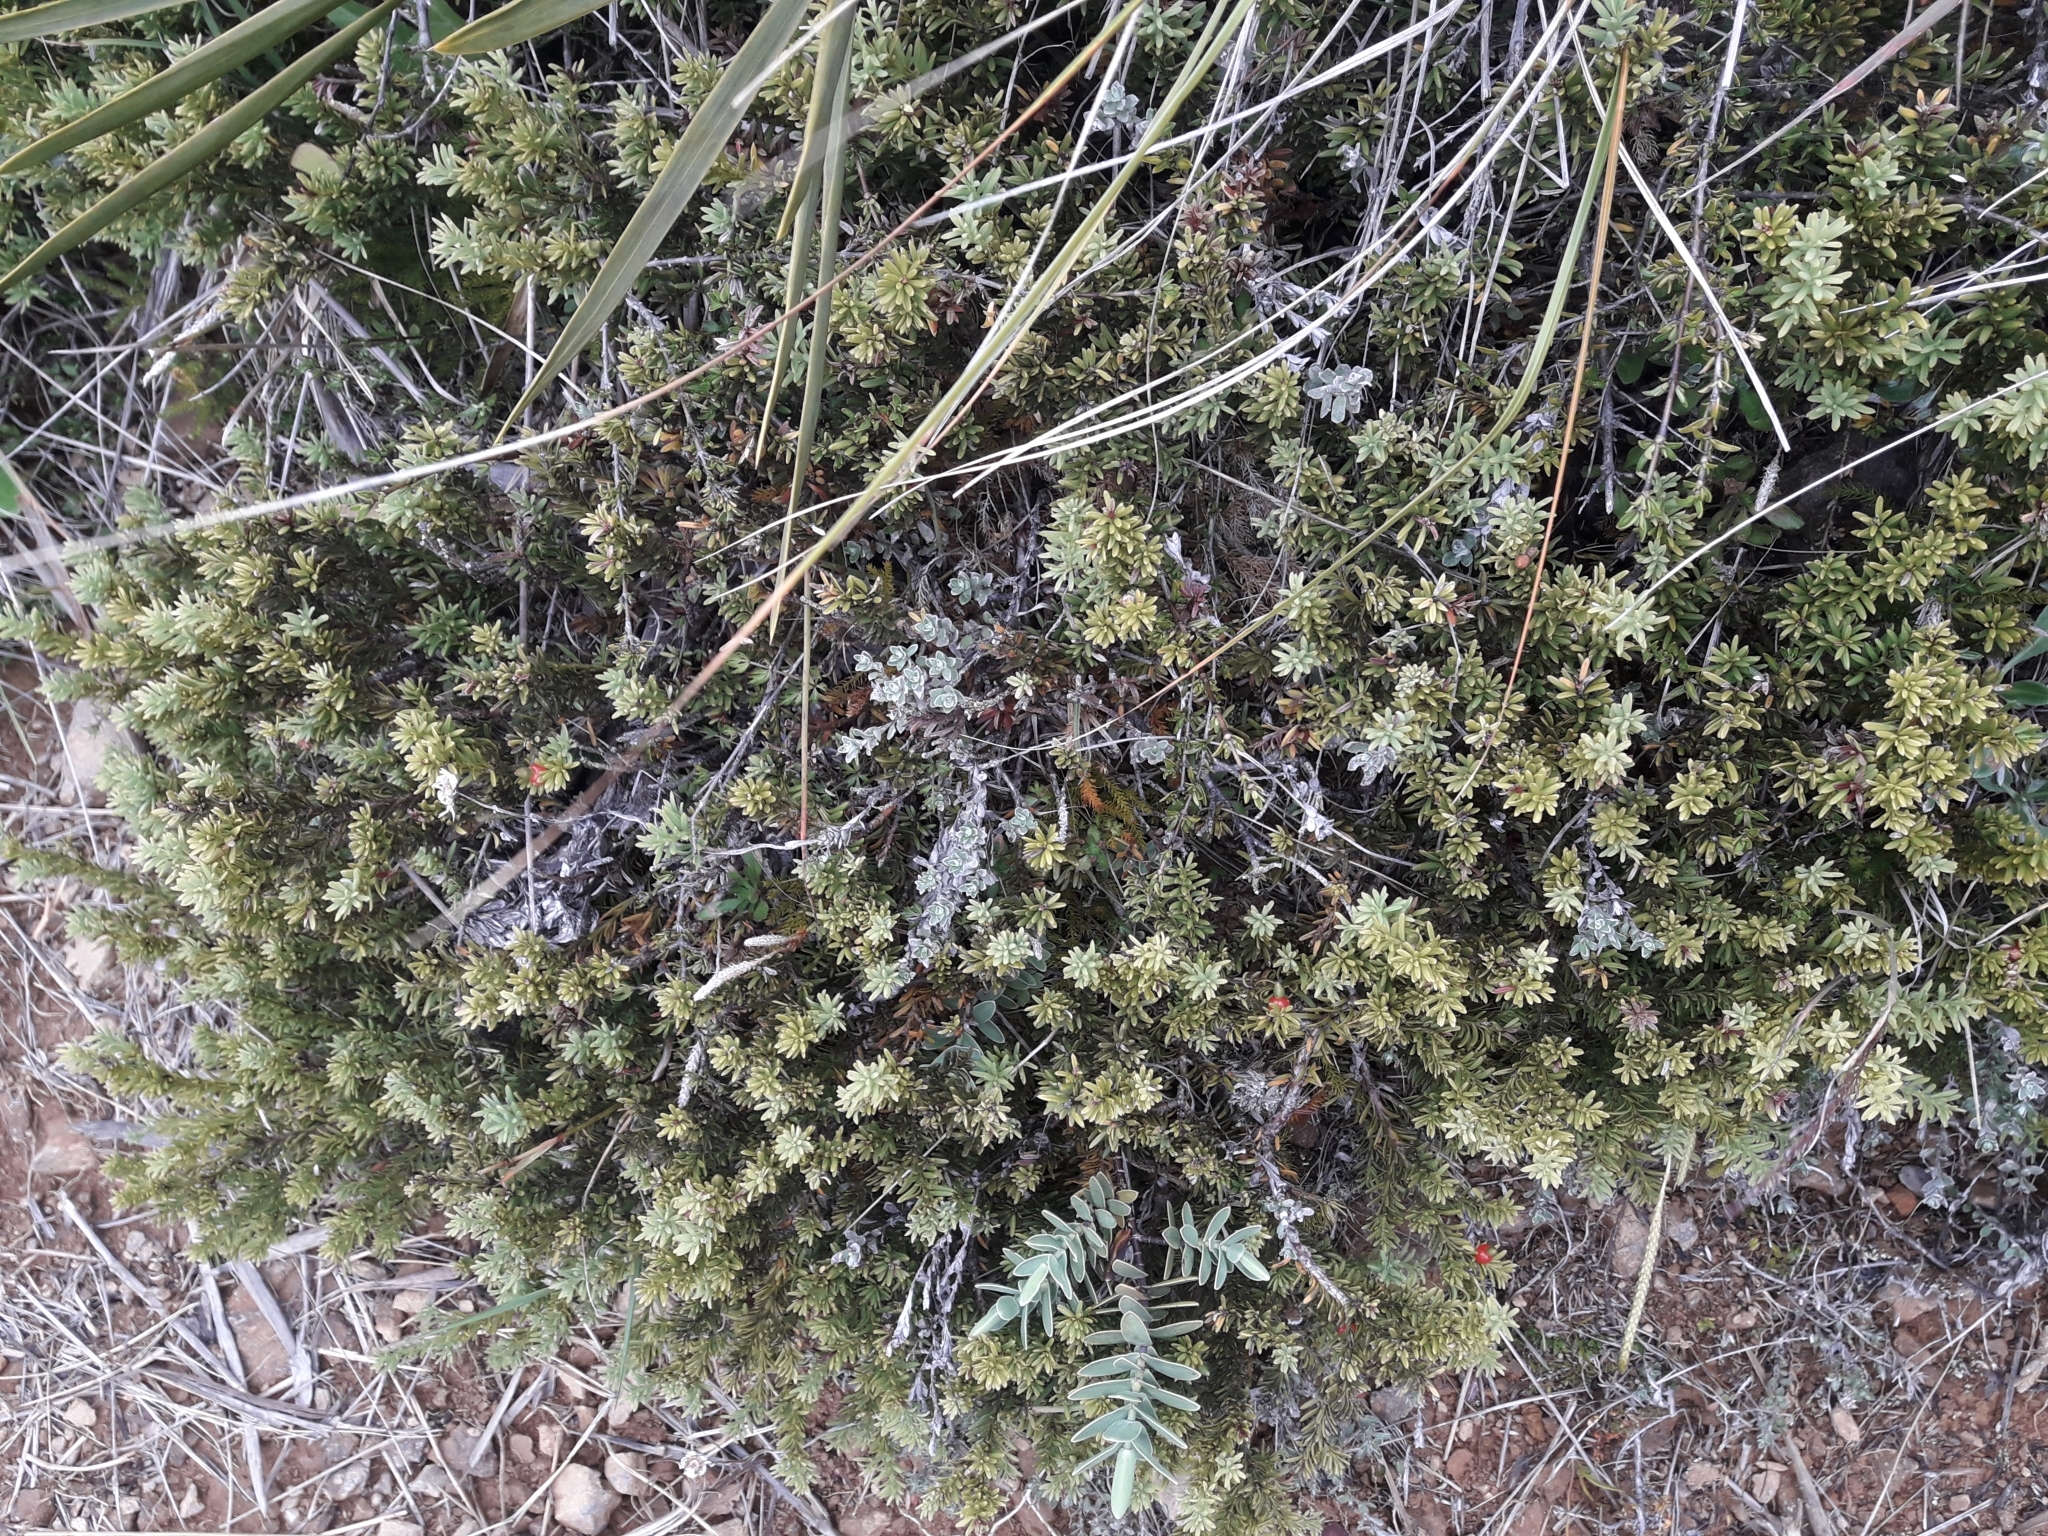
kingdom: Plantae
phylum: Tracheophyta
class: Pinopsida
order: Pinales
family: Podocarpaceae
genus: Podocarpus
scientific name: Podocarpus nivalis
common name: Alpine totara
